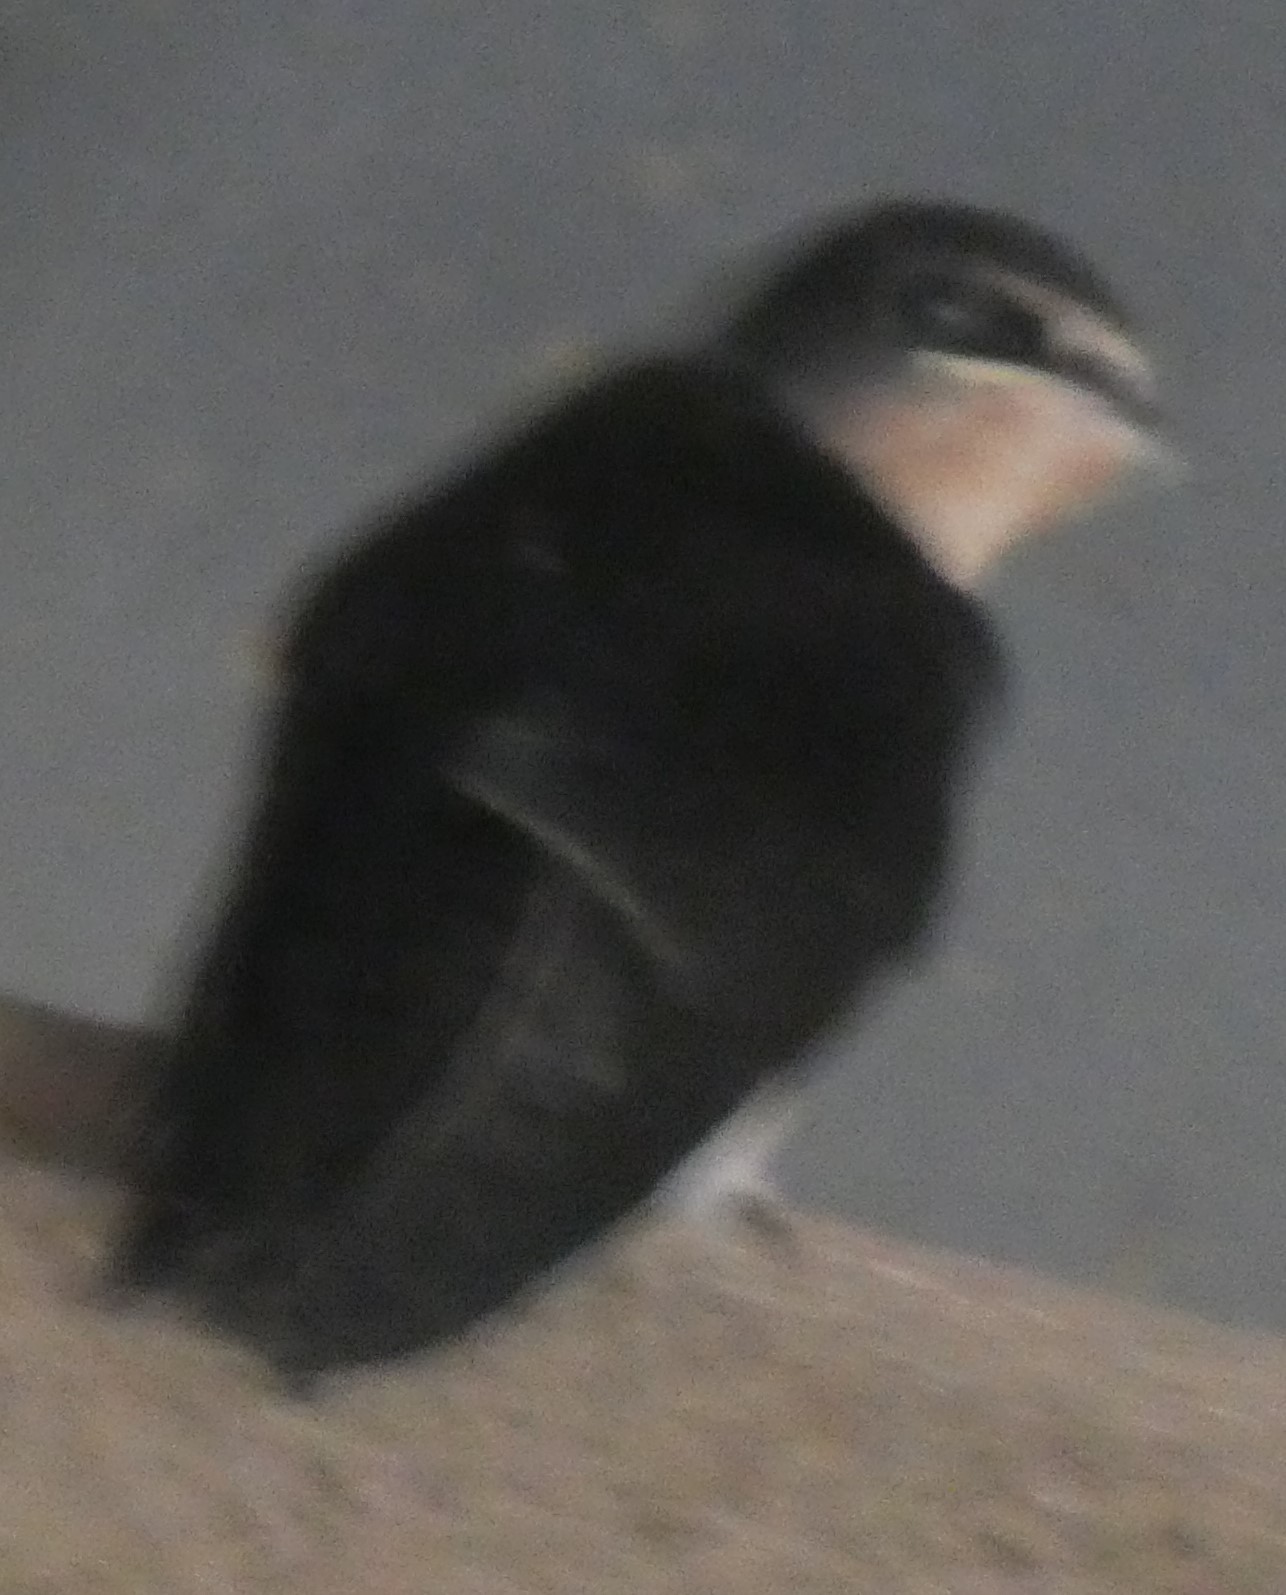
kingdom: Animalia
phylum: Chordata
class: Aves
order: Passeriformes
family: Hirundinidae
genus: Hirundo
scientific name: Hirundo rustica
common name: Barn swallow
